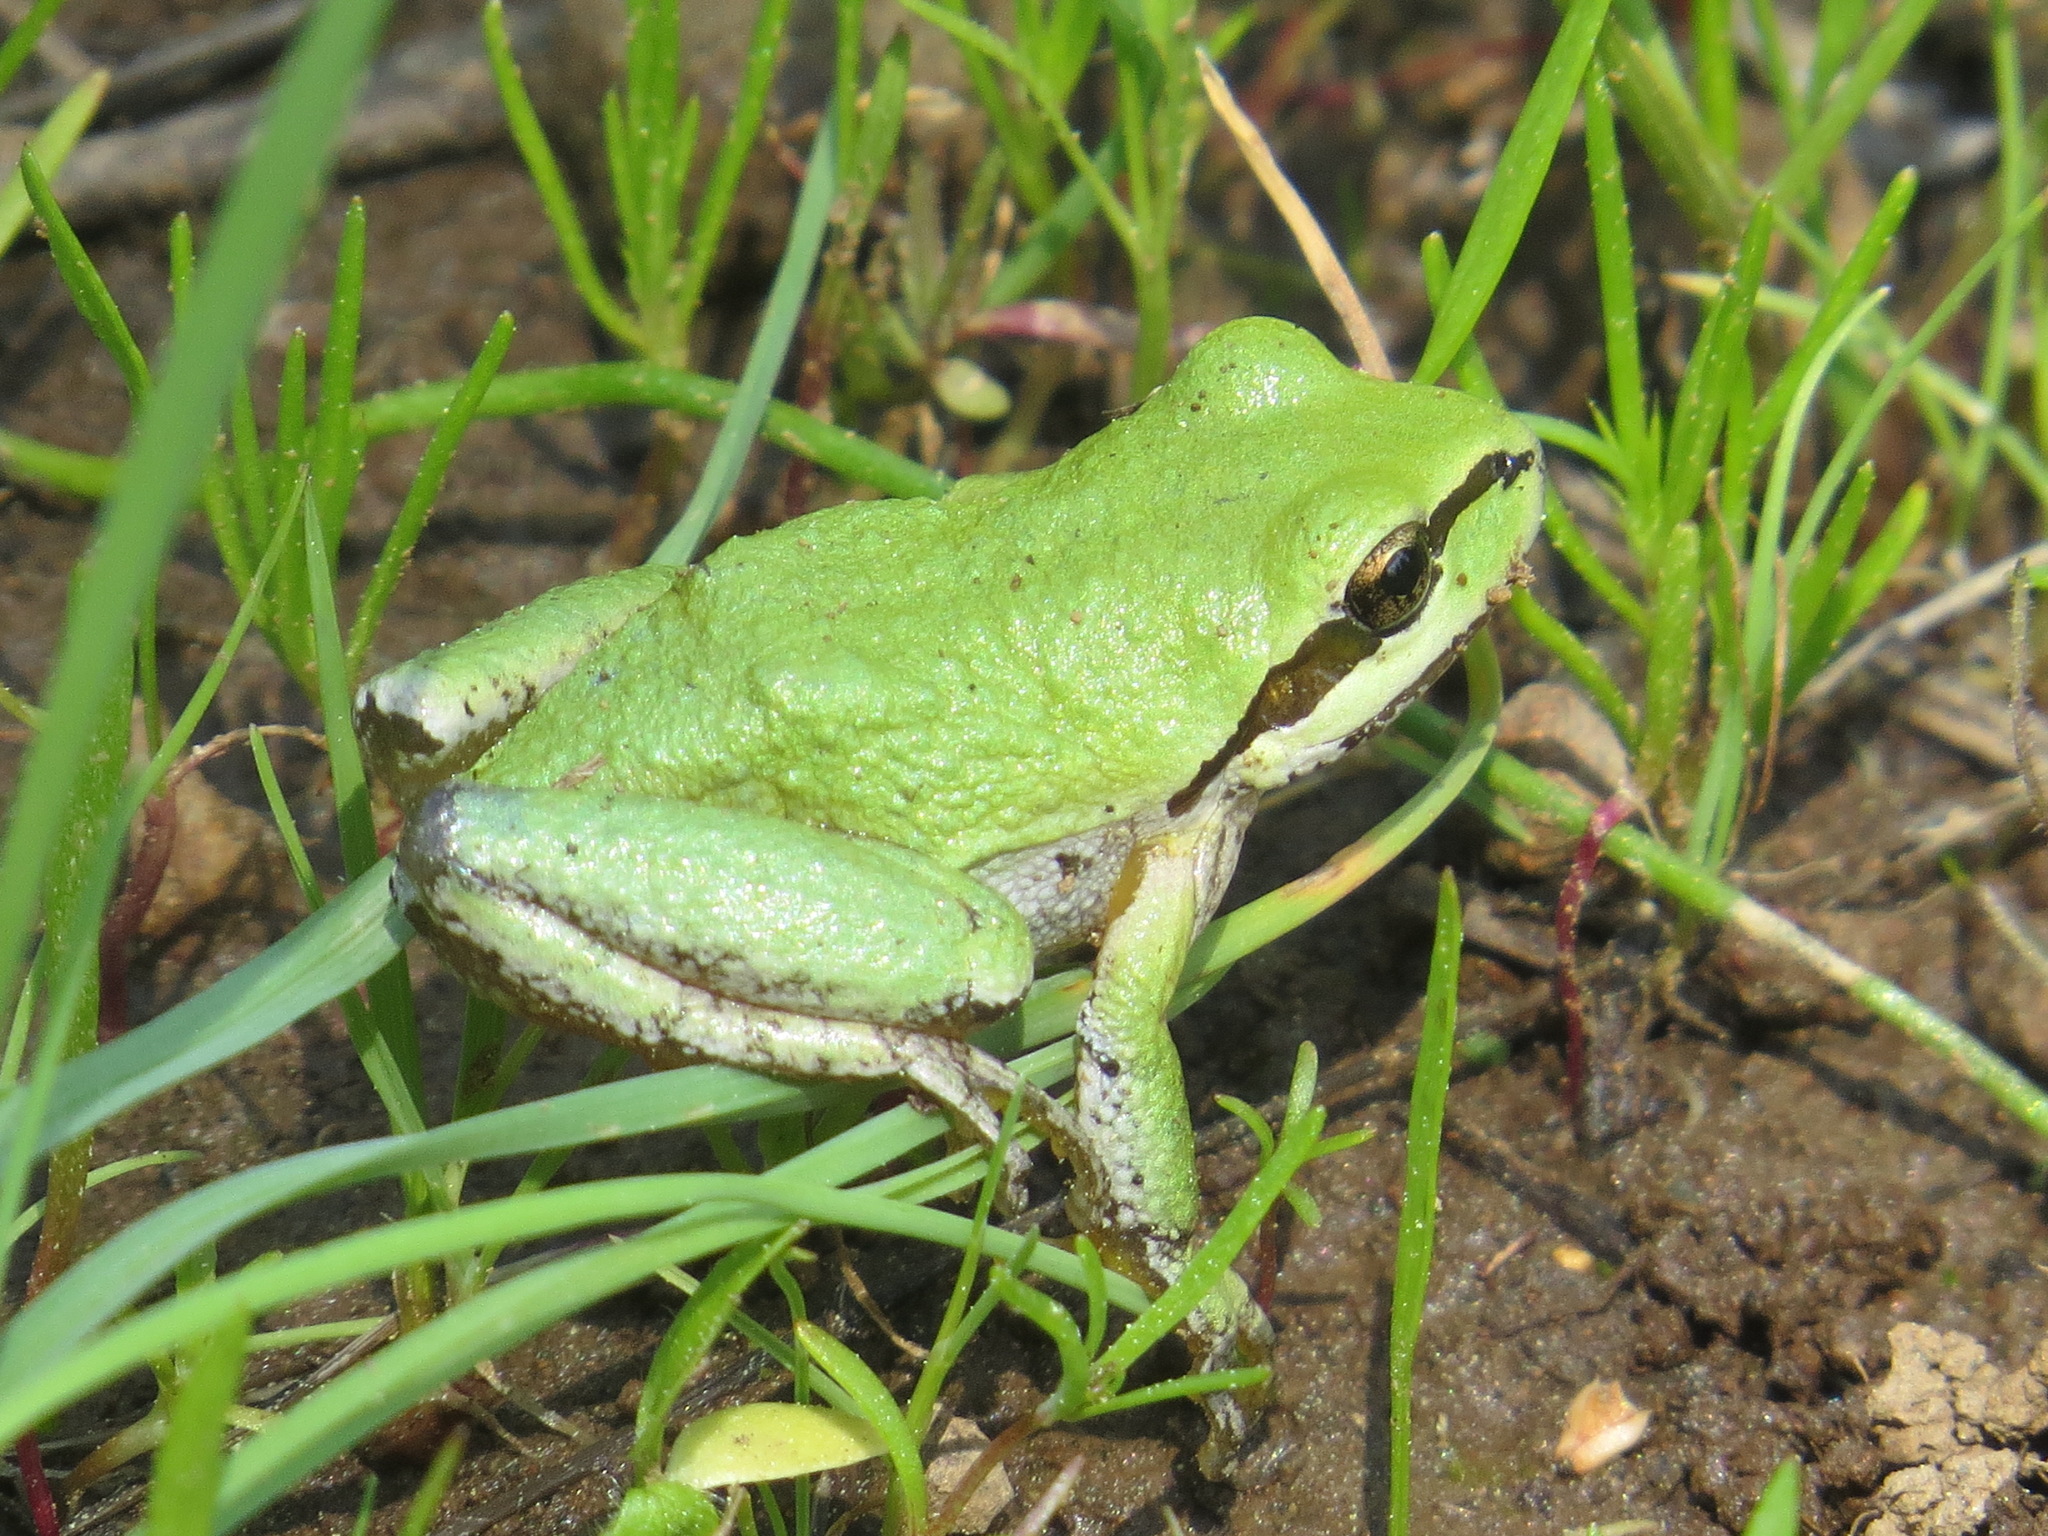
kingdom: Animalia
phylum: Chordata
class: Amphibia
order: Anura
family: Hylidae
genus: Pseudacris
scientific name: Pseudacris regilla
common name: Pacific chorus frog
